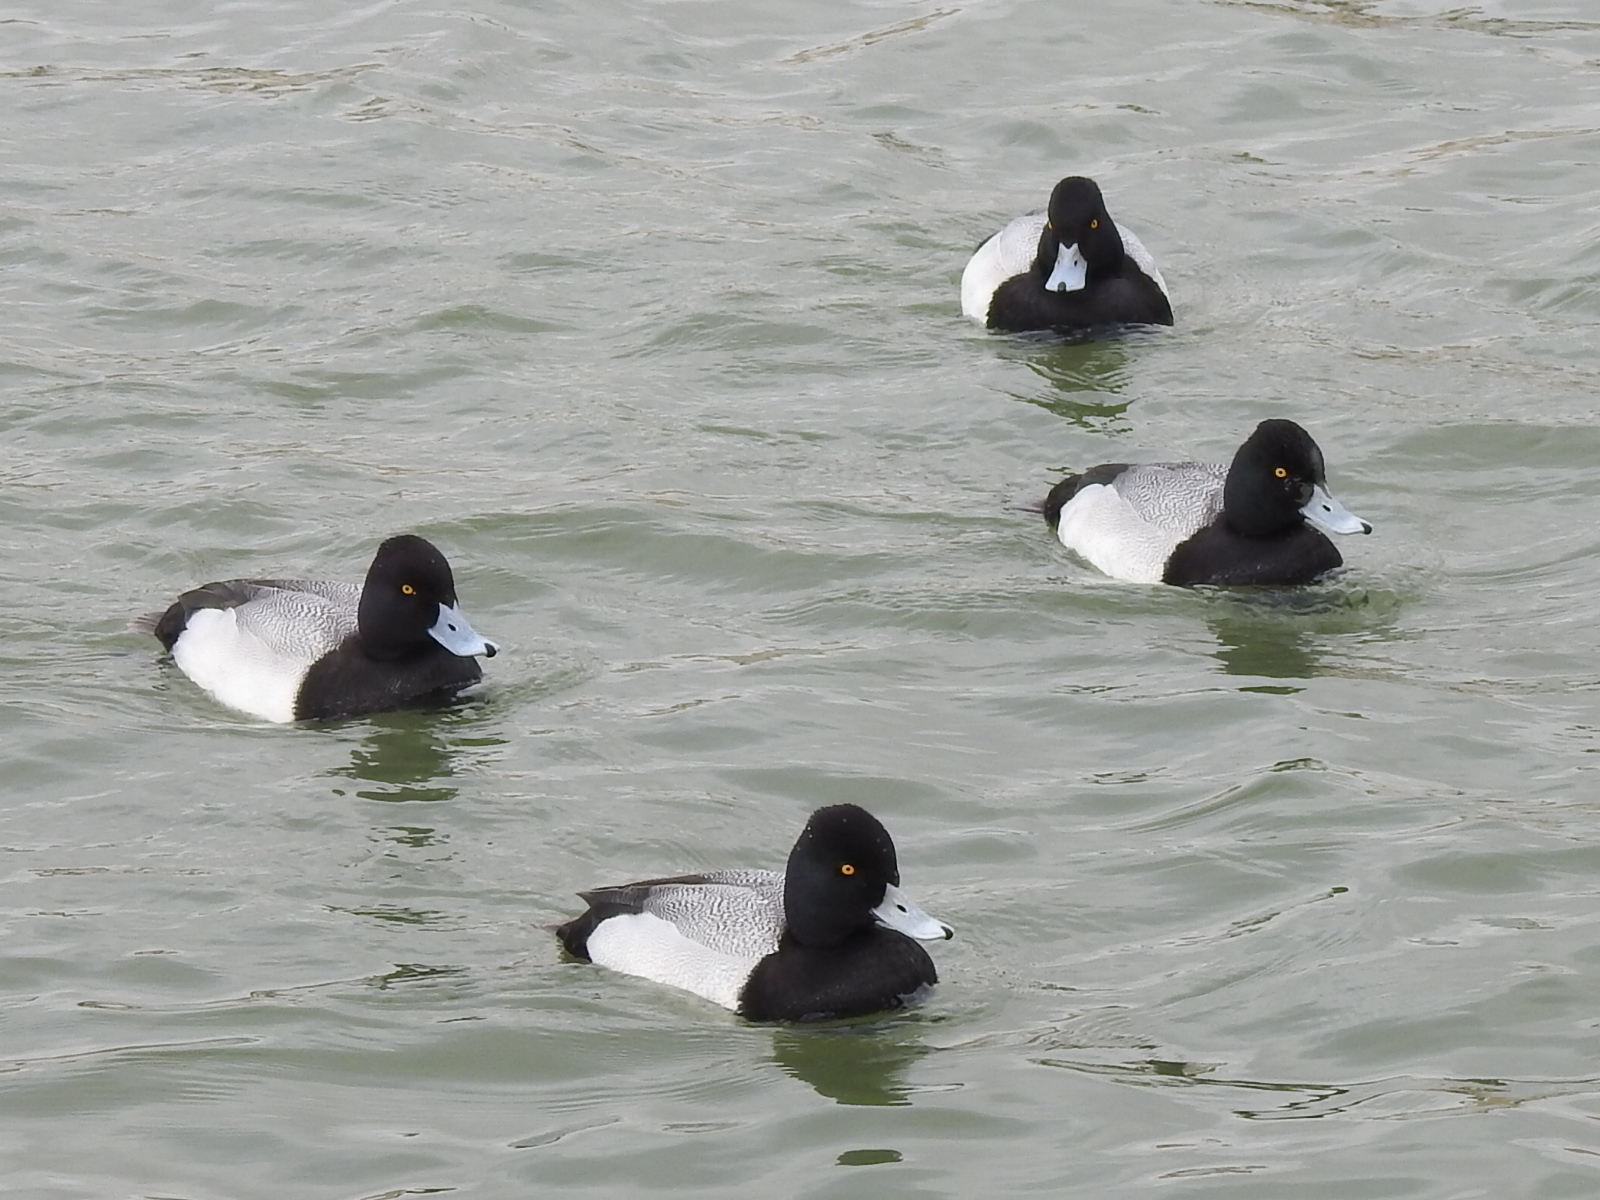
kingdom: Animalia
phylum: Chordata
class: Aves
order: Anseriformes
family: Anatidae
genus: Aythya
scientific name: Aythya affinis
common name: Lesser scaup
